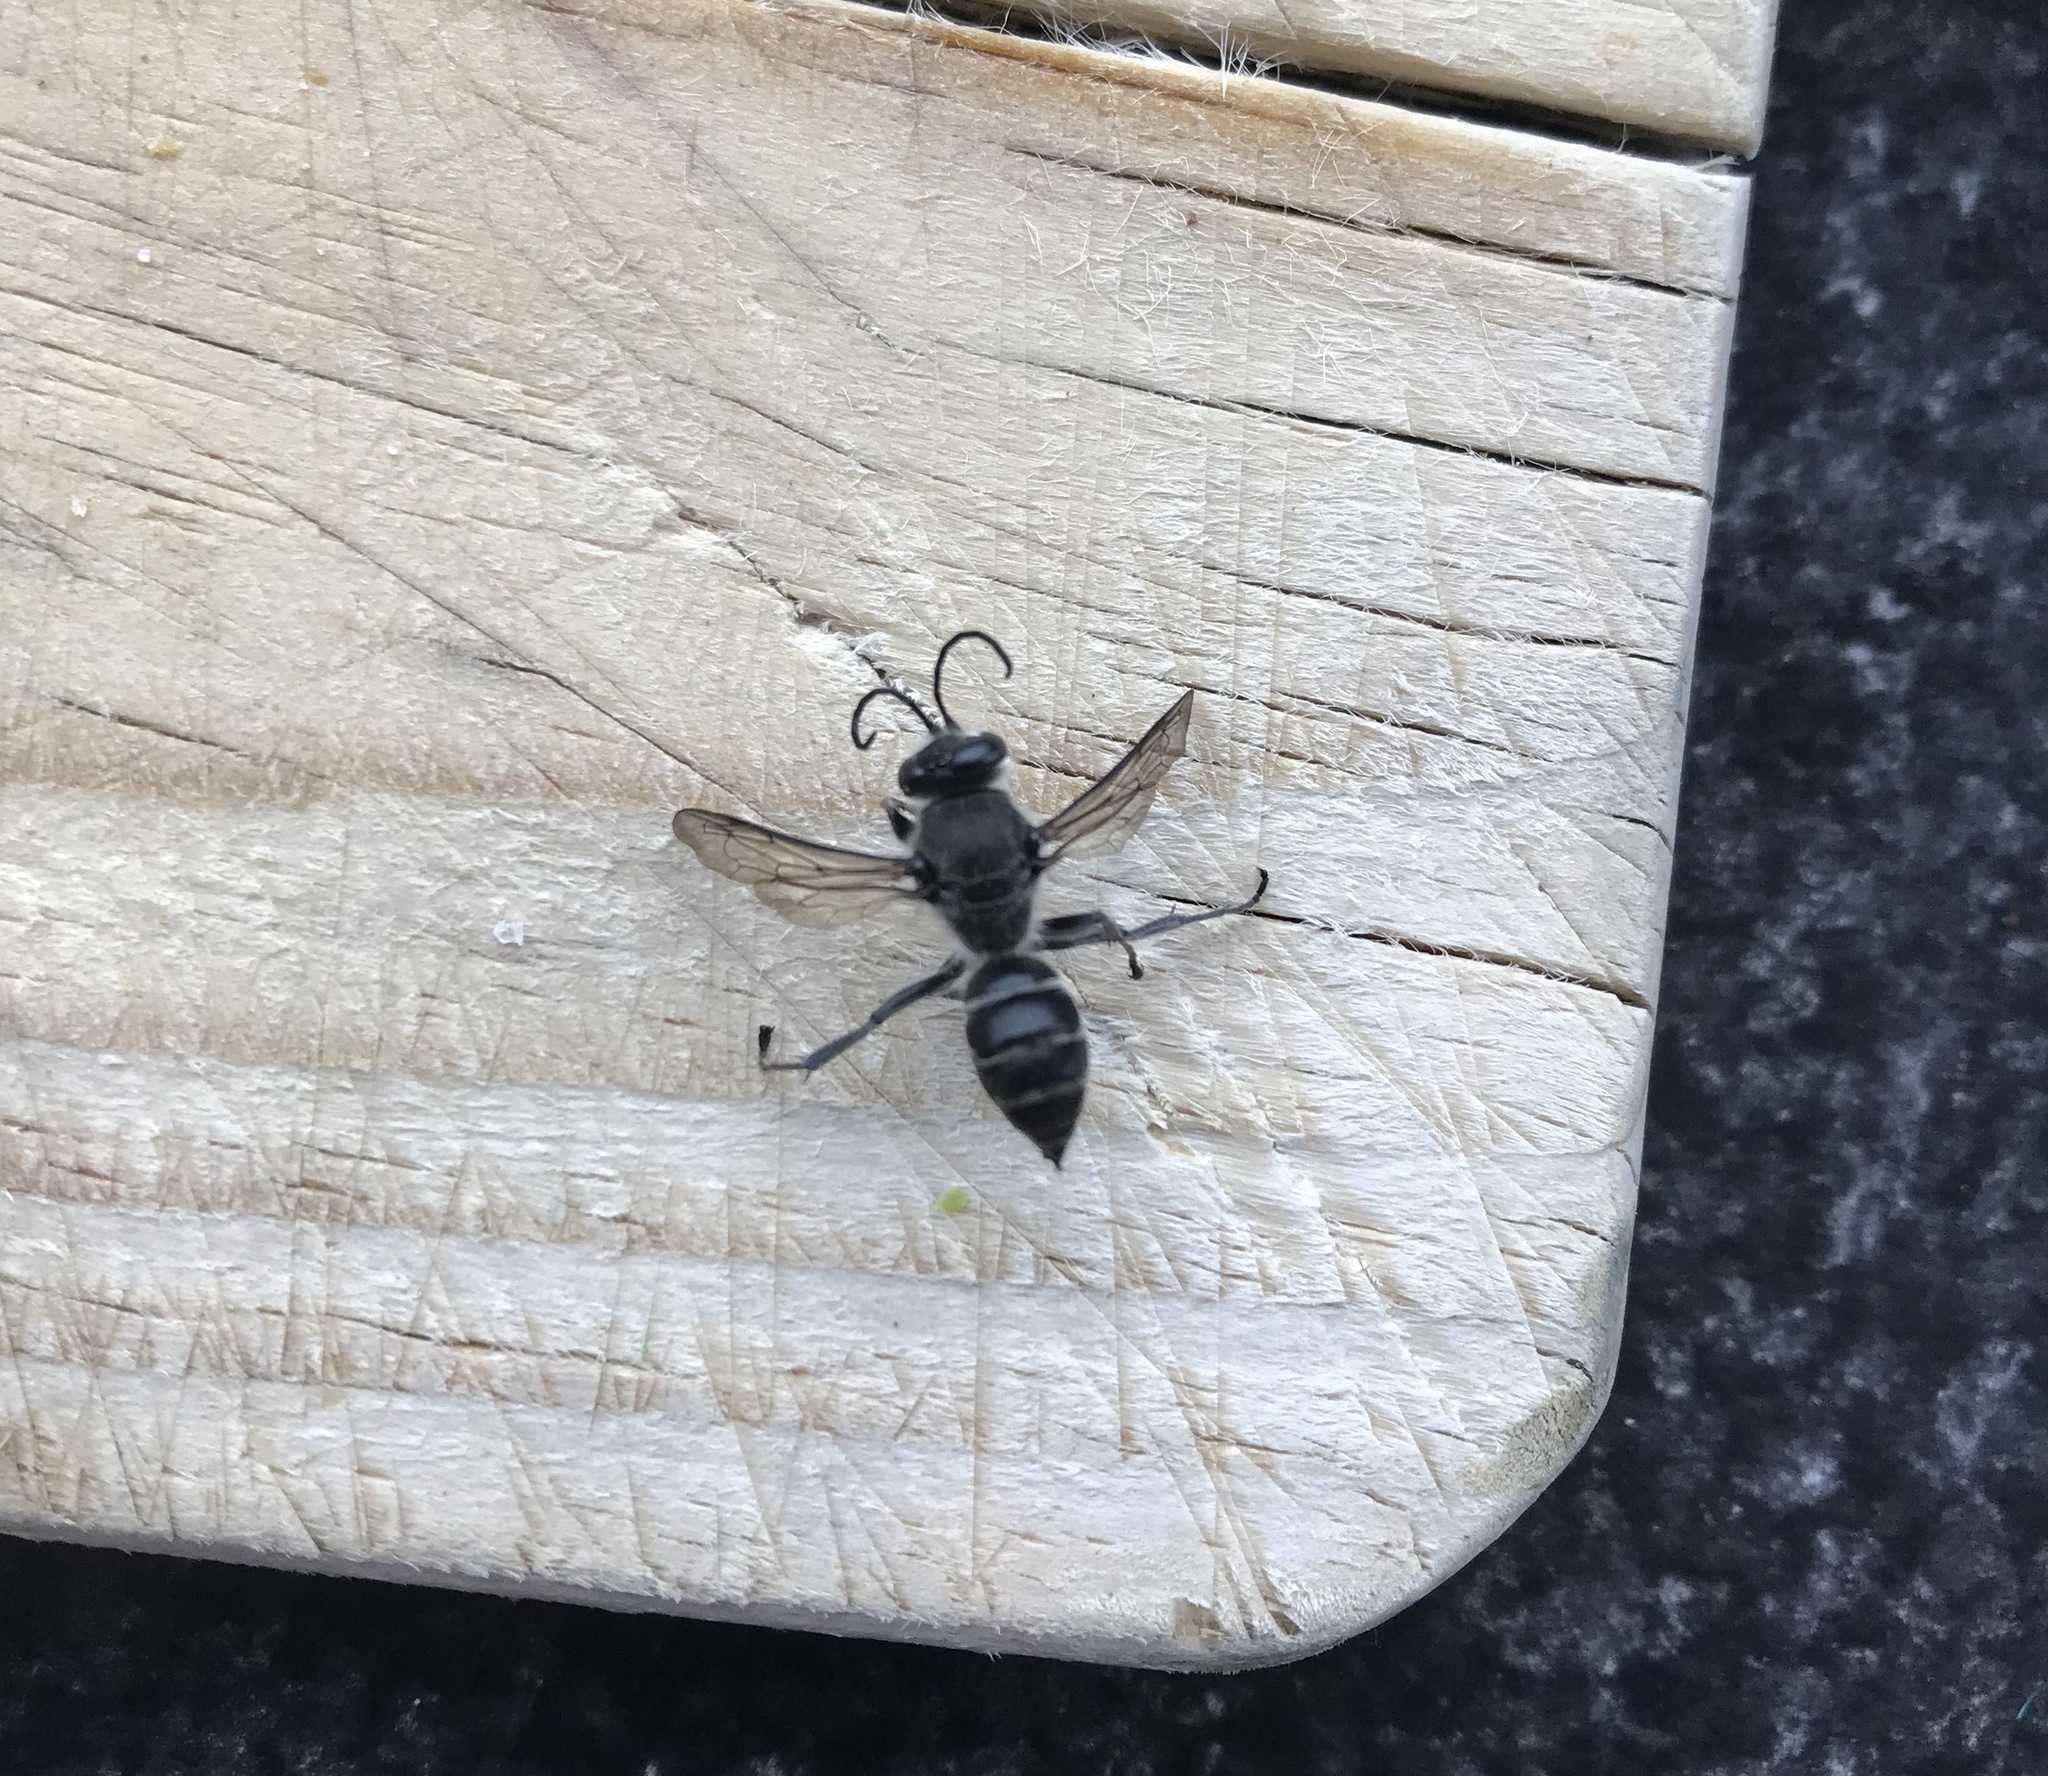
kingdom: Animalia
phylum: Arthropoda
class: Insecta
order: Hymenoptera
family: Crabronidae
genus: Pison
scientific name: Pison spinolae
